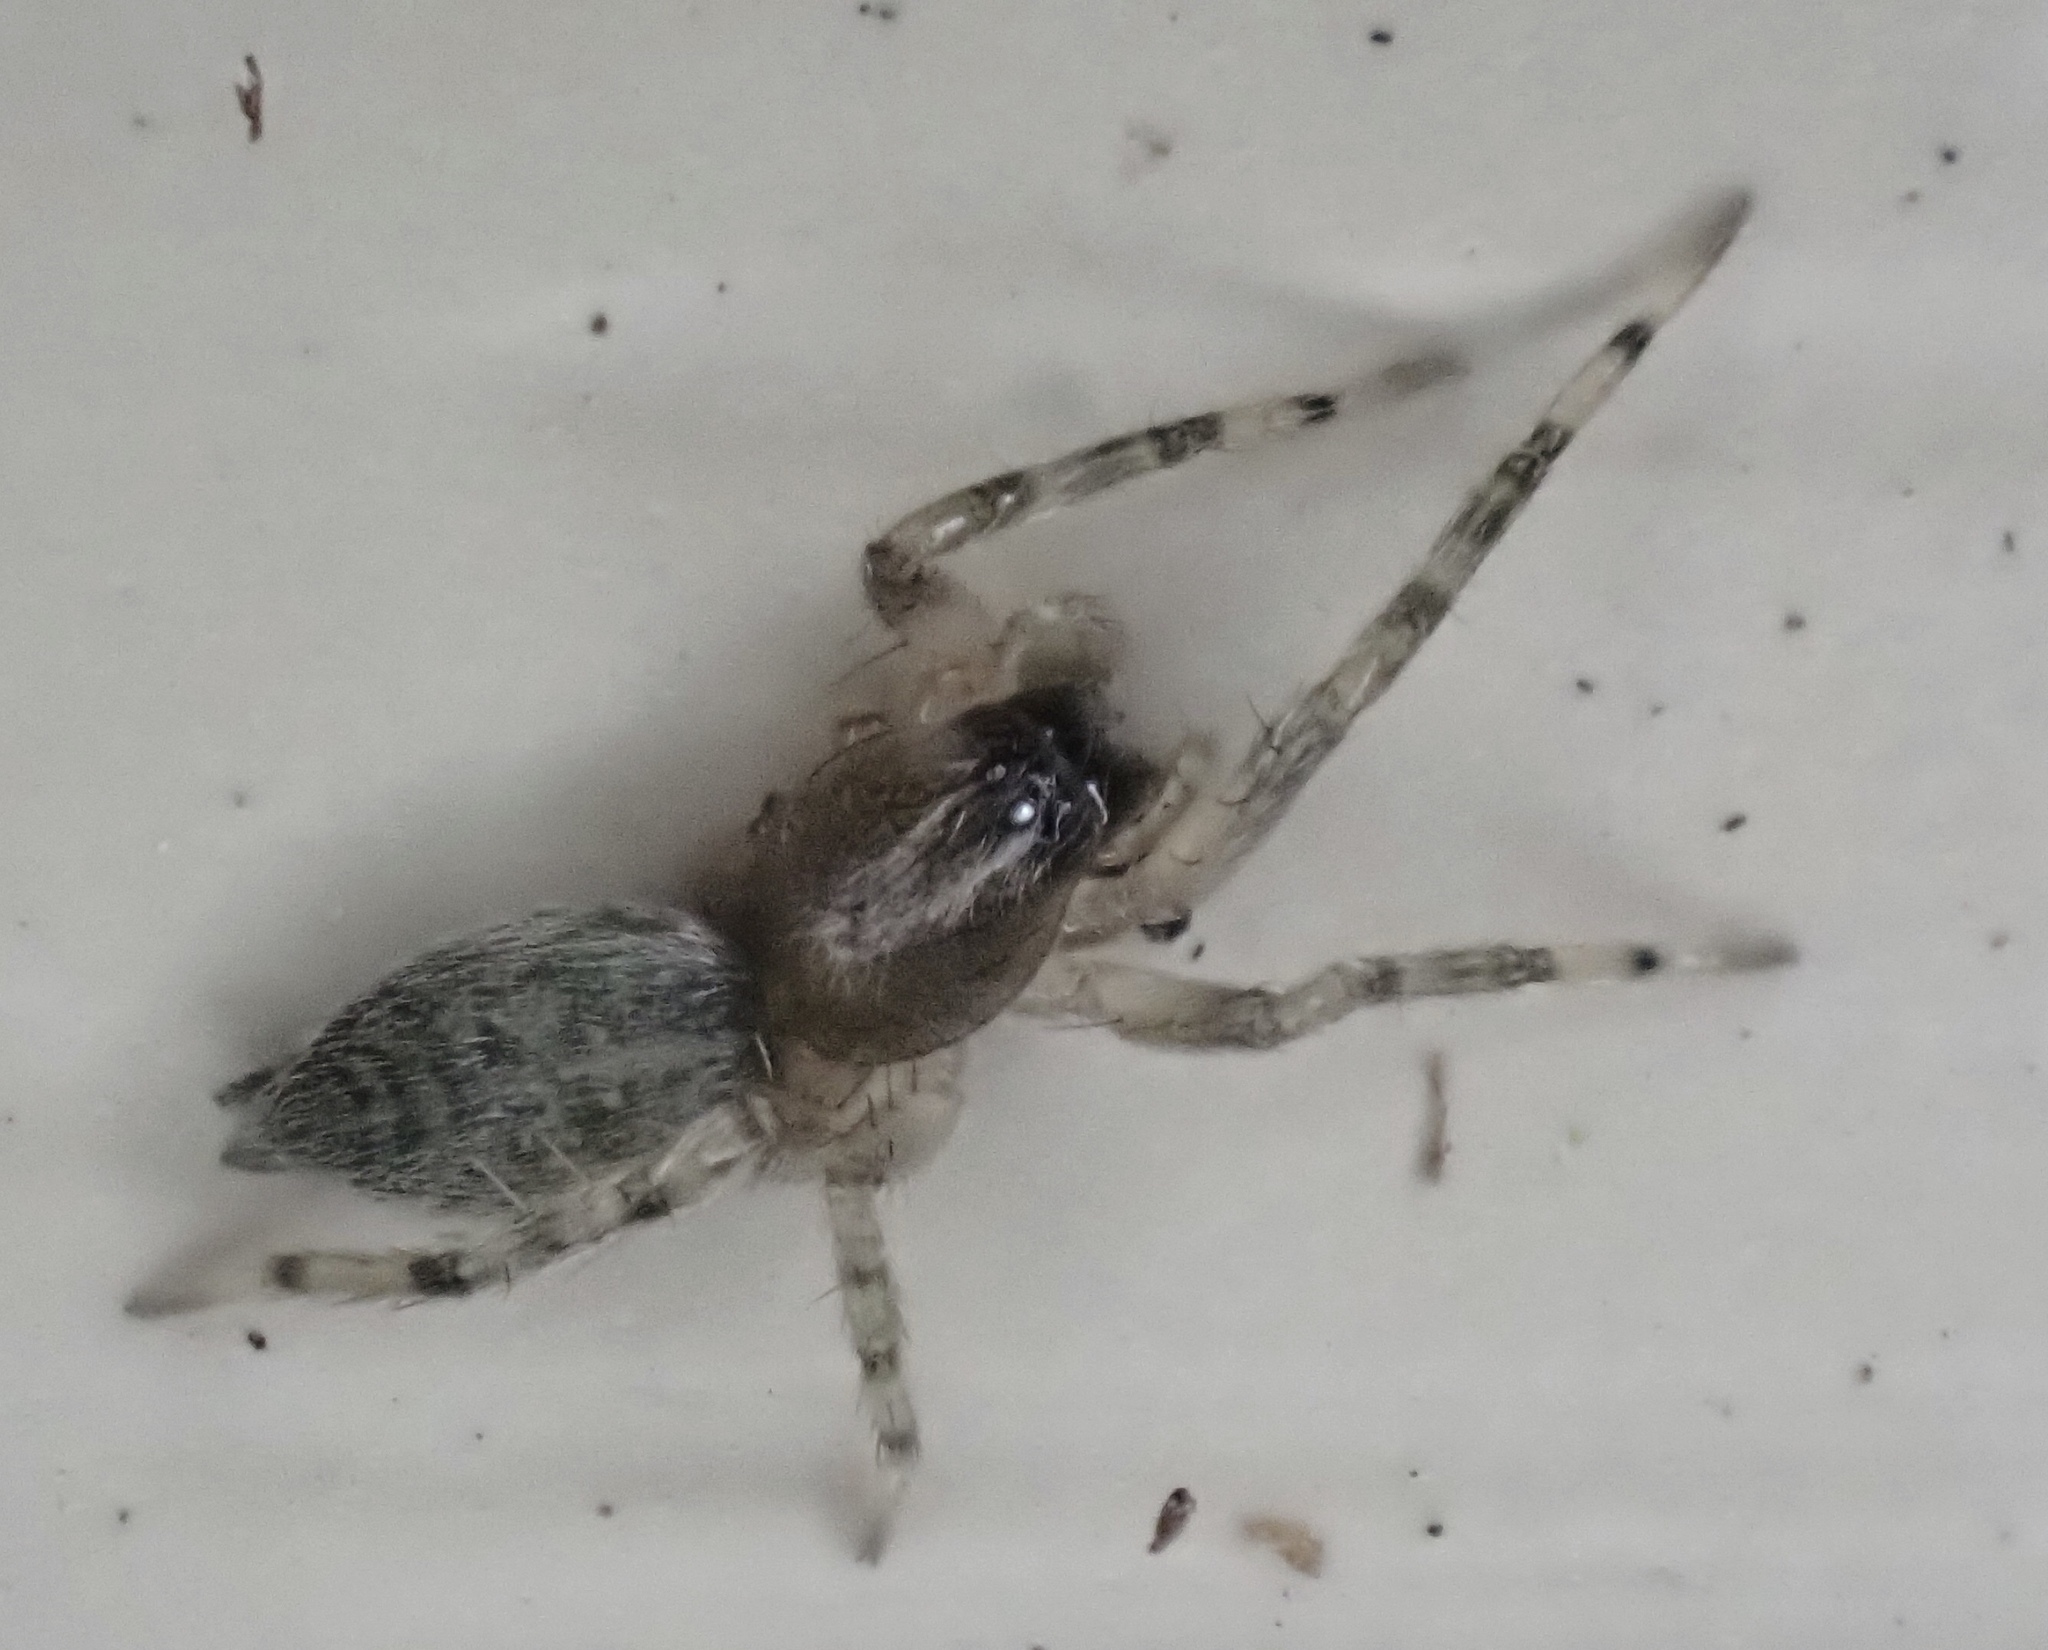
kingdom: Animalia
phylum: Arthropoda
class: Arachnida
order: Araneae
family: Anyphaenidae
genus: Lupettiana
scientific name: Lupettiana mordax
